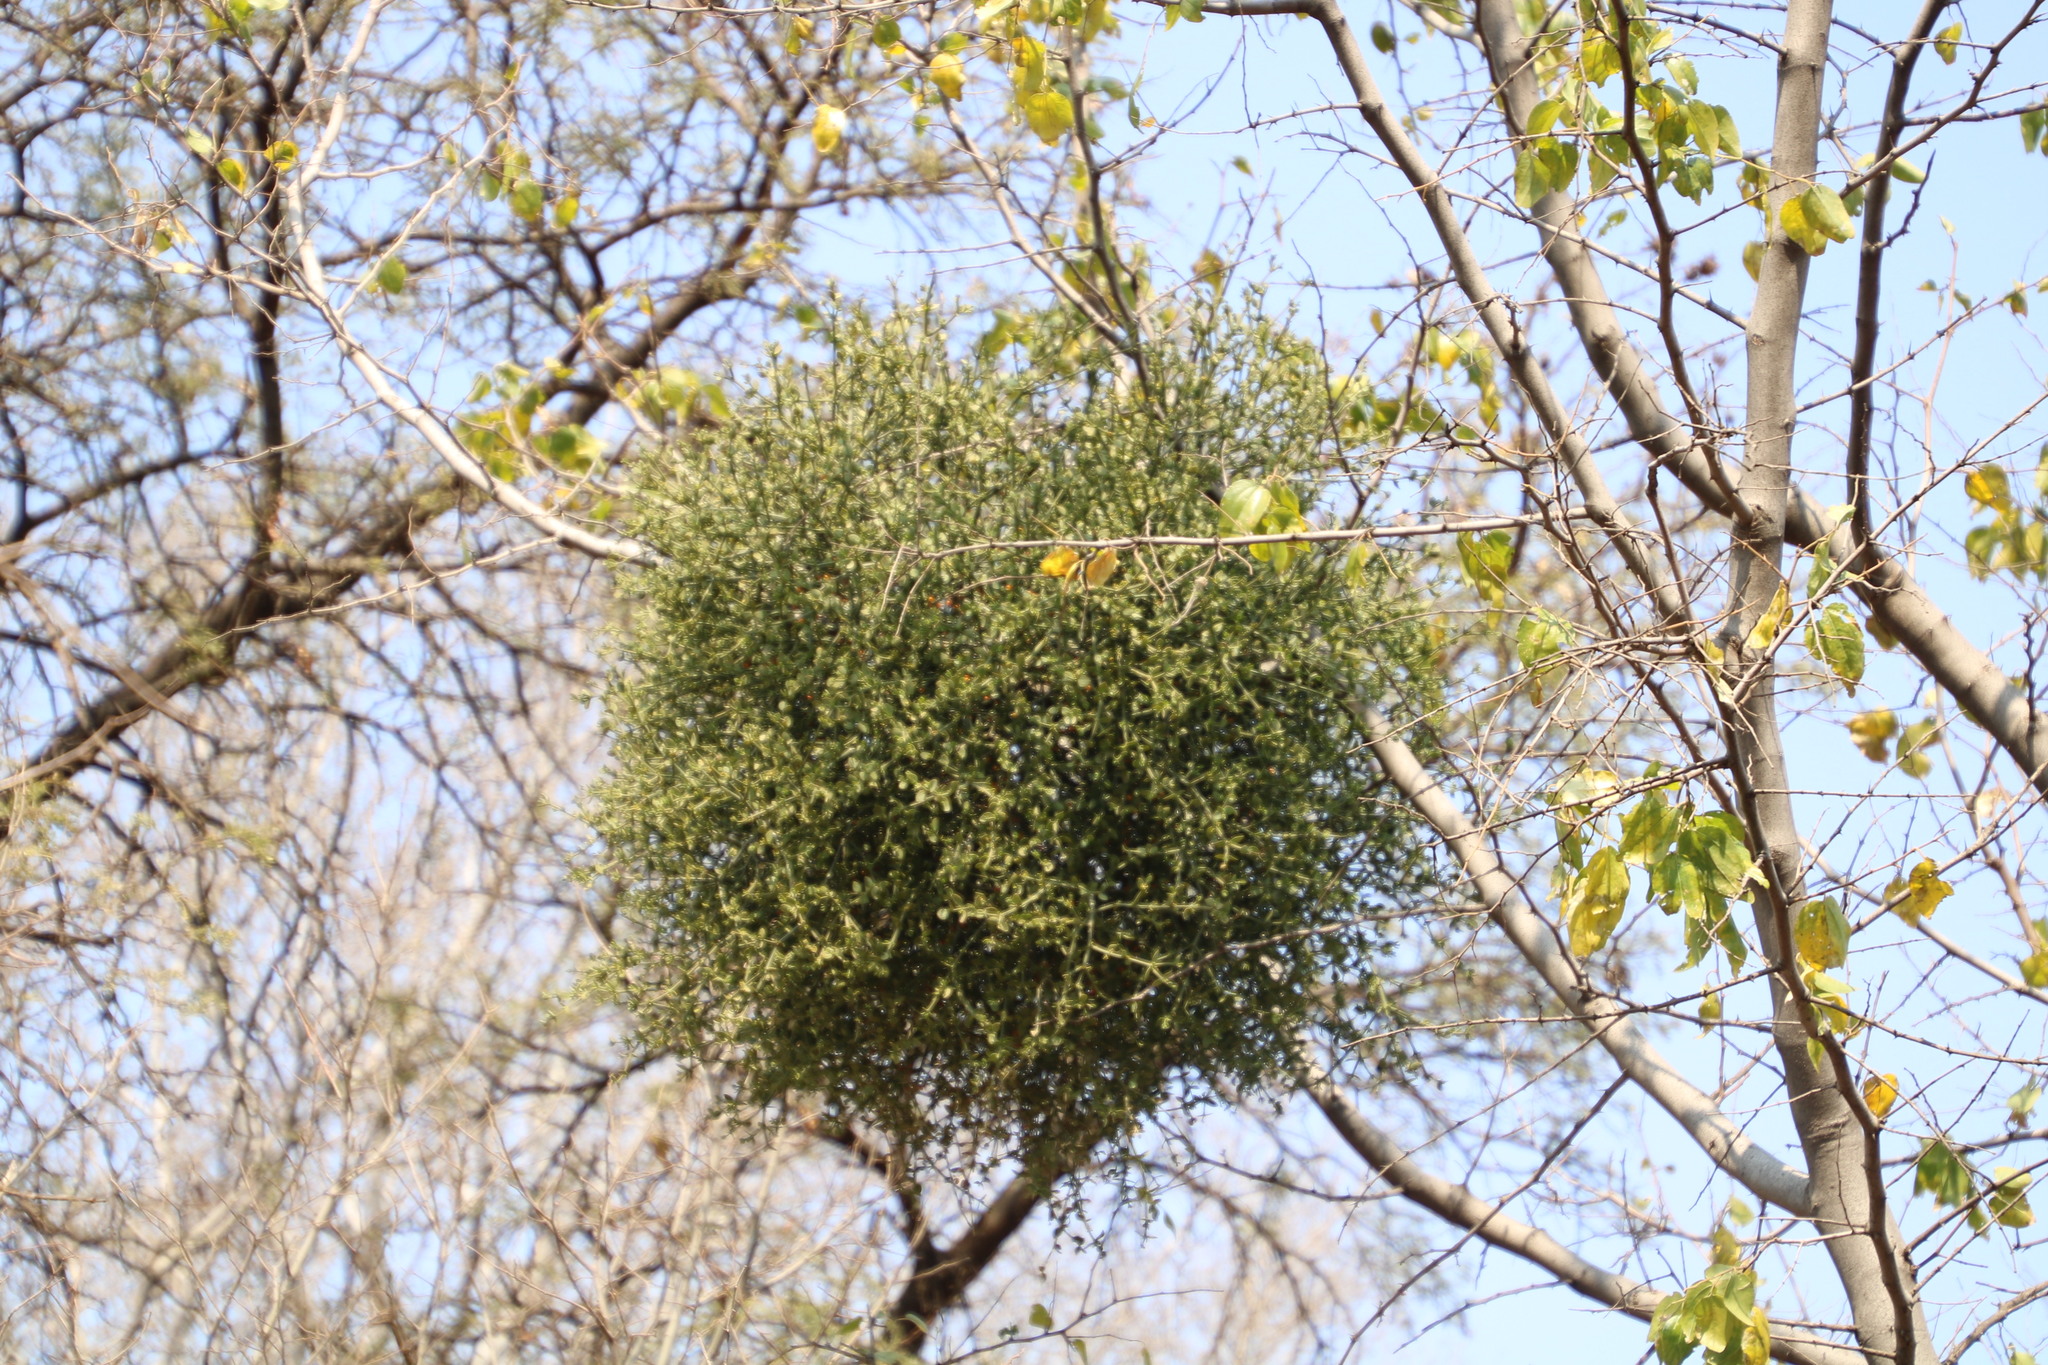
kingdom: Plantae
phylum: Tracheophyta
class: Magnoliopsida
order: Santalales
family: Viscaceae
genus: Viscum
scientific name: Viscum rotundifolium
